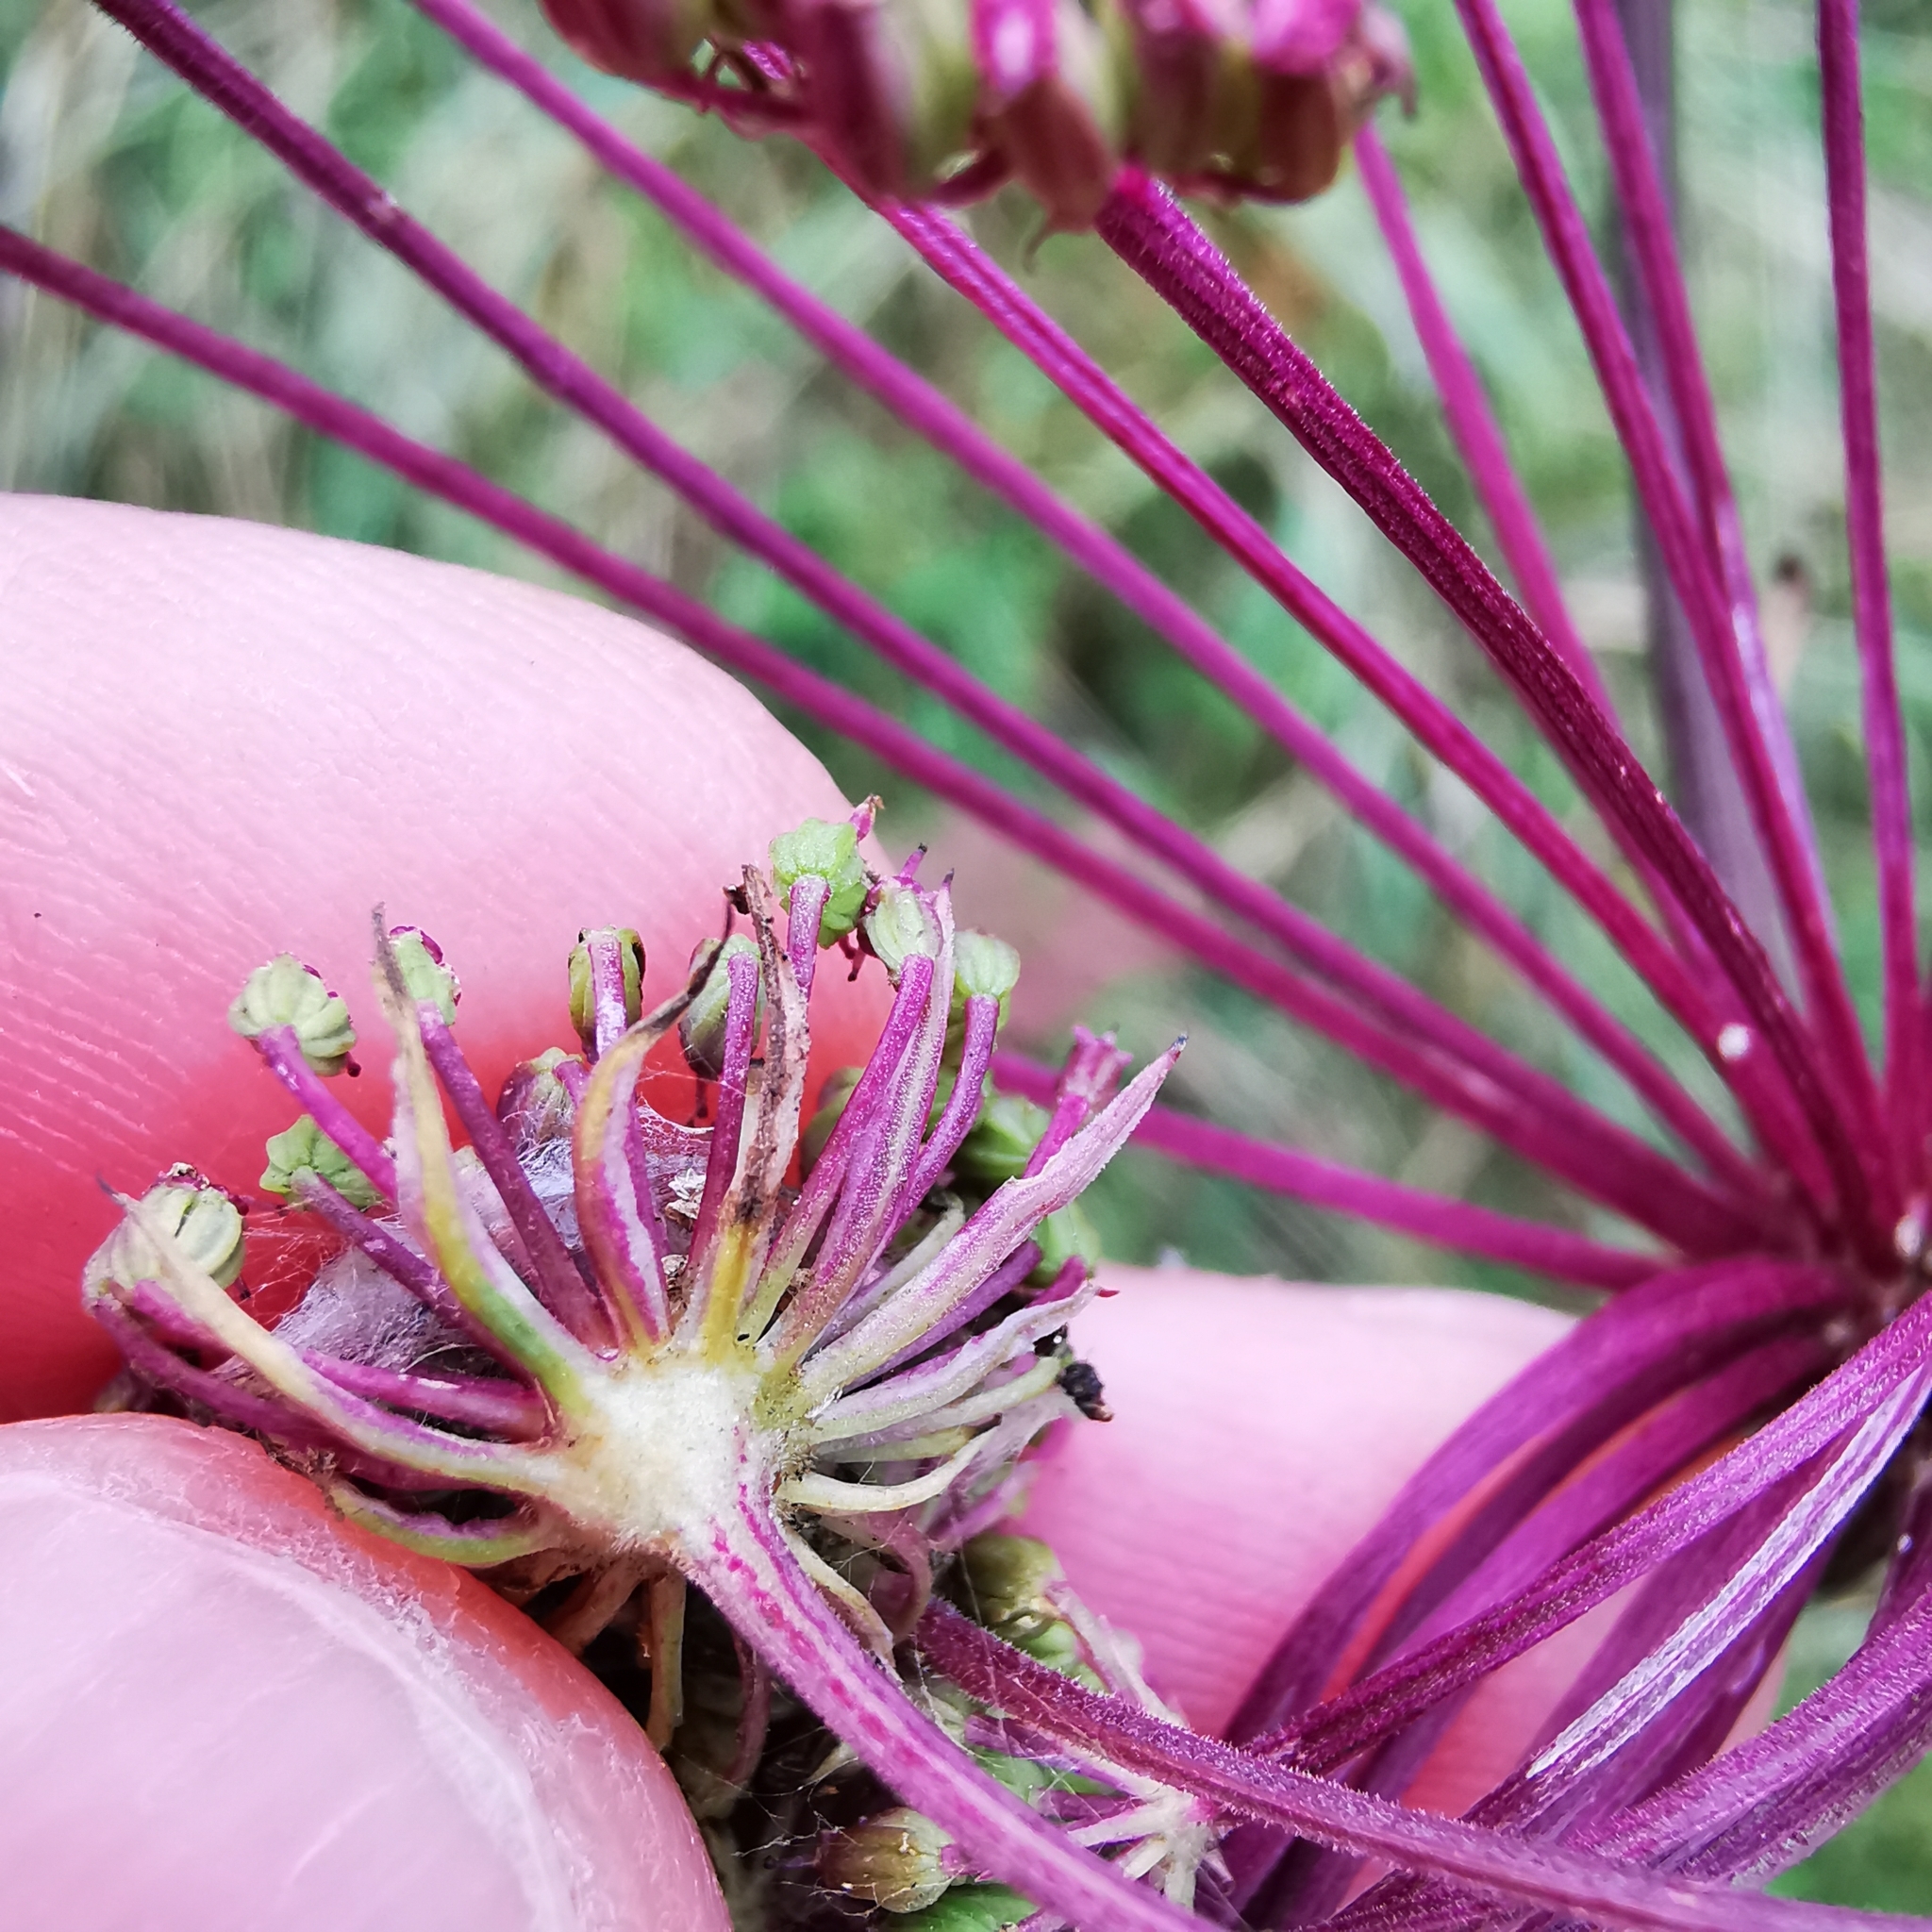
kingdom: Plantae
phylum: Tracheophyta
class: Magnoliopsida
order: Apiales
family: Apiaceae
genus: Seseli
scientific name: Seseli annuum
